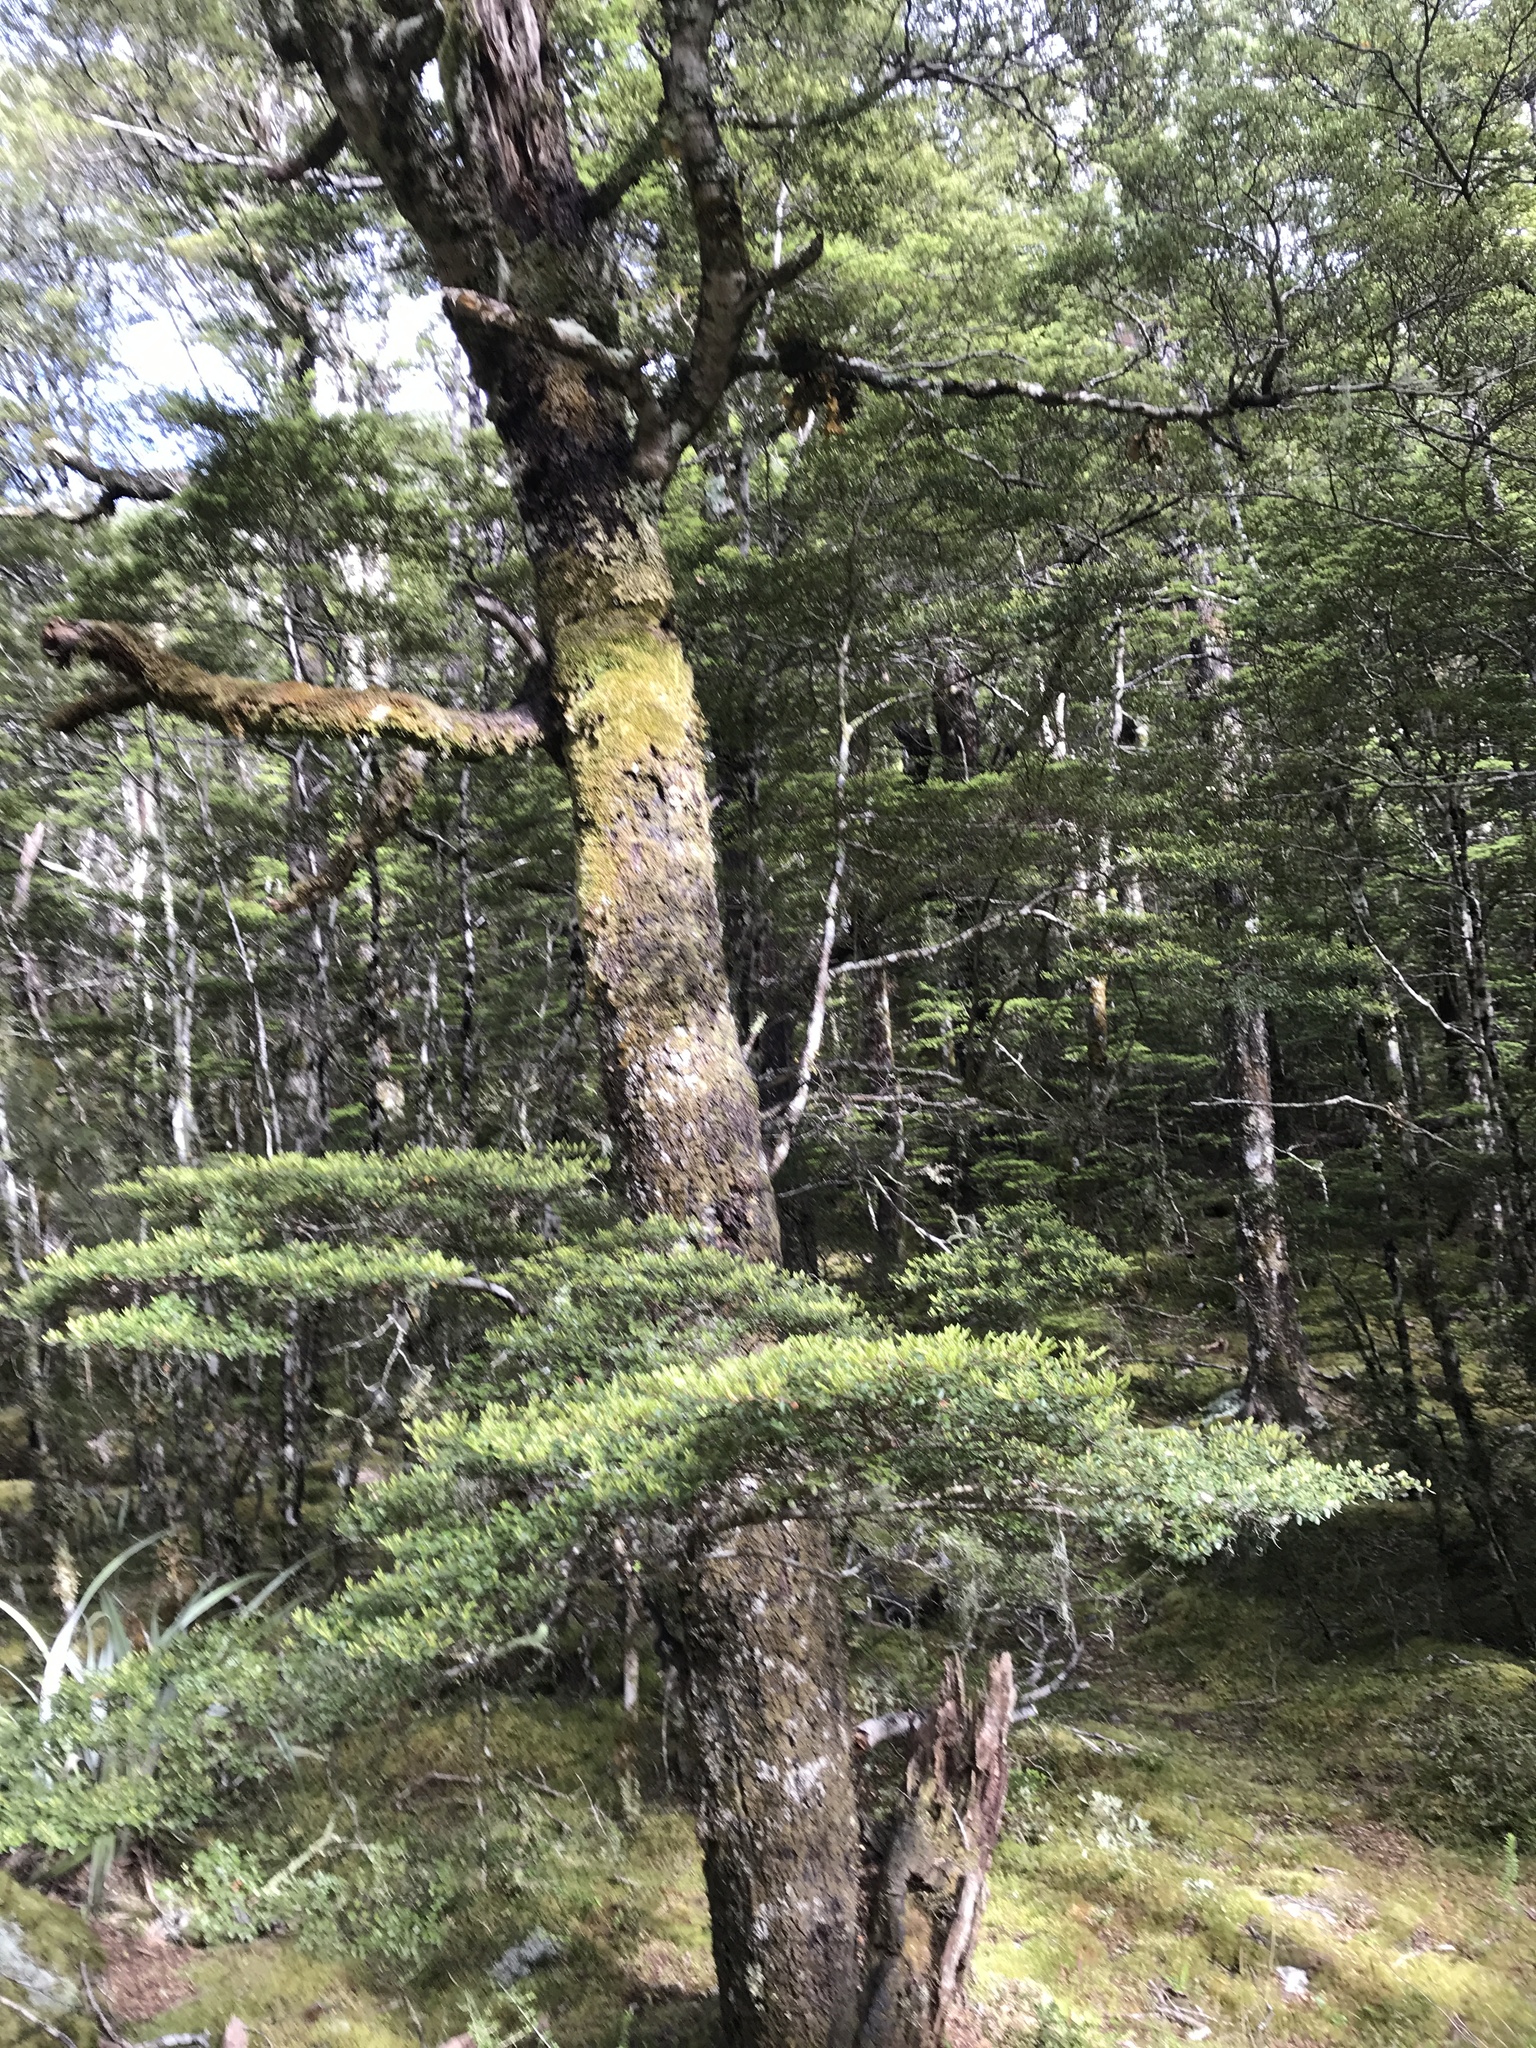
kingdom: Plantae
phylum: Tracheophyta
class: Magnoliopsida
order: Fagales
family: Nothofagaceae
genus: Nothofagus
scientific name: Nothofagus cliffortioides
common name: Mountain beech
